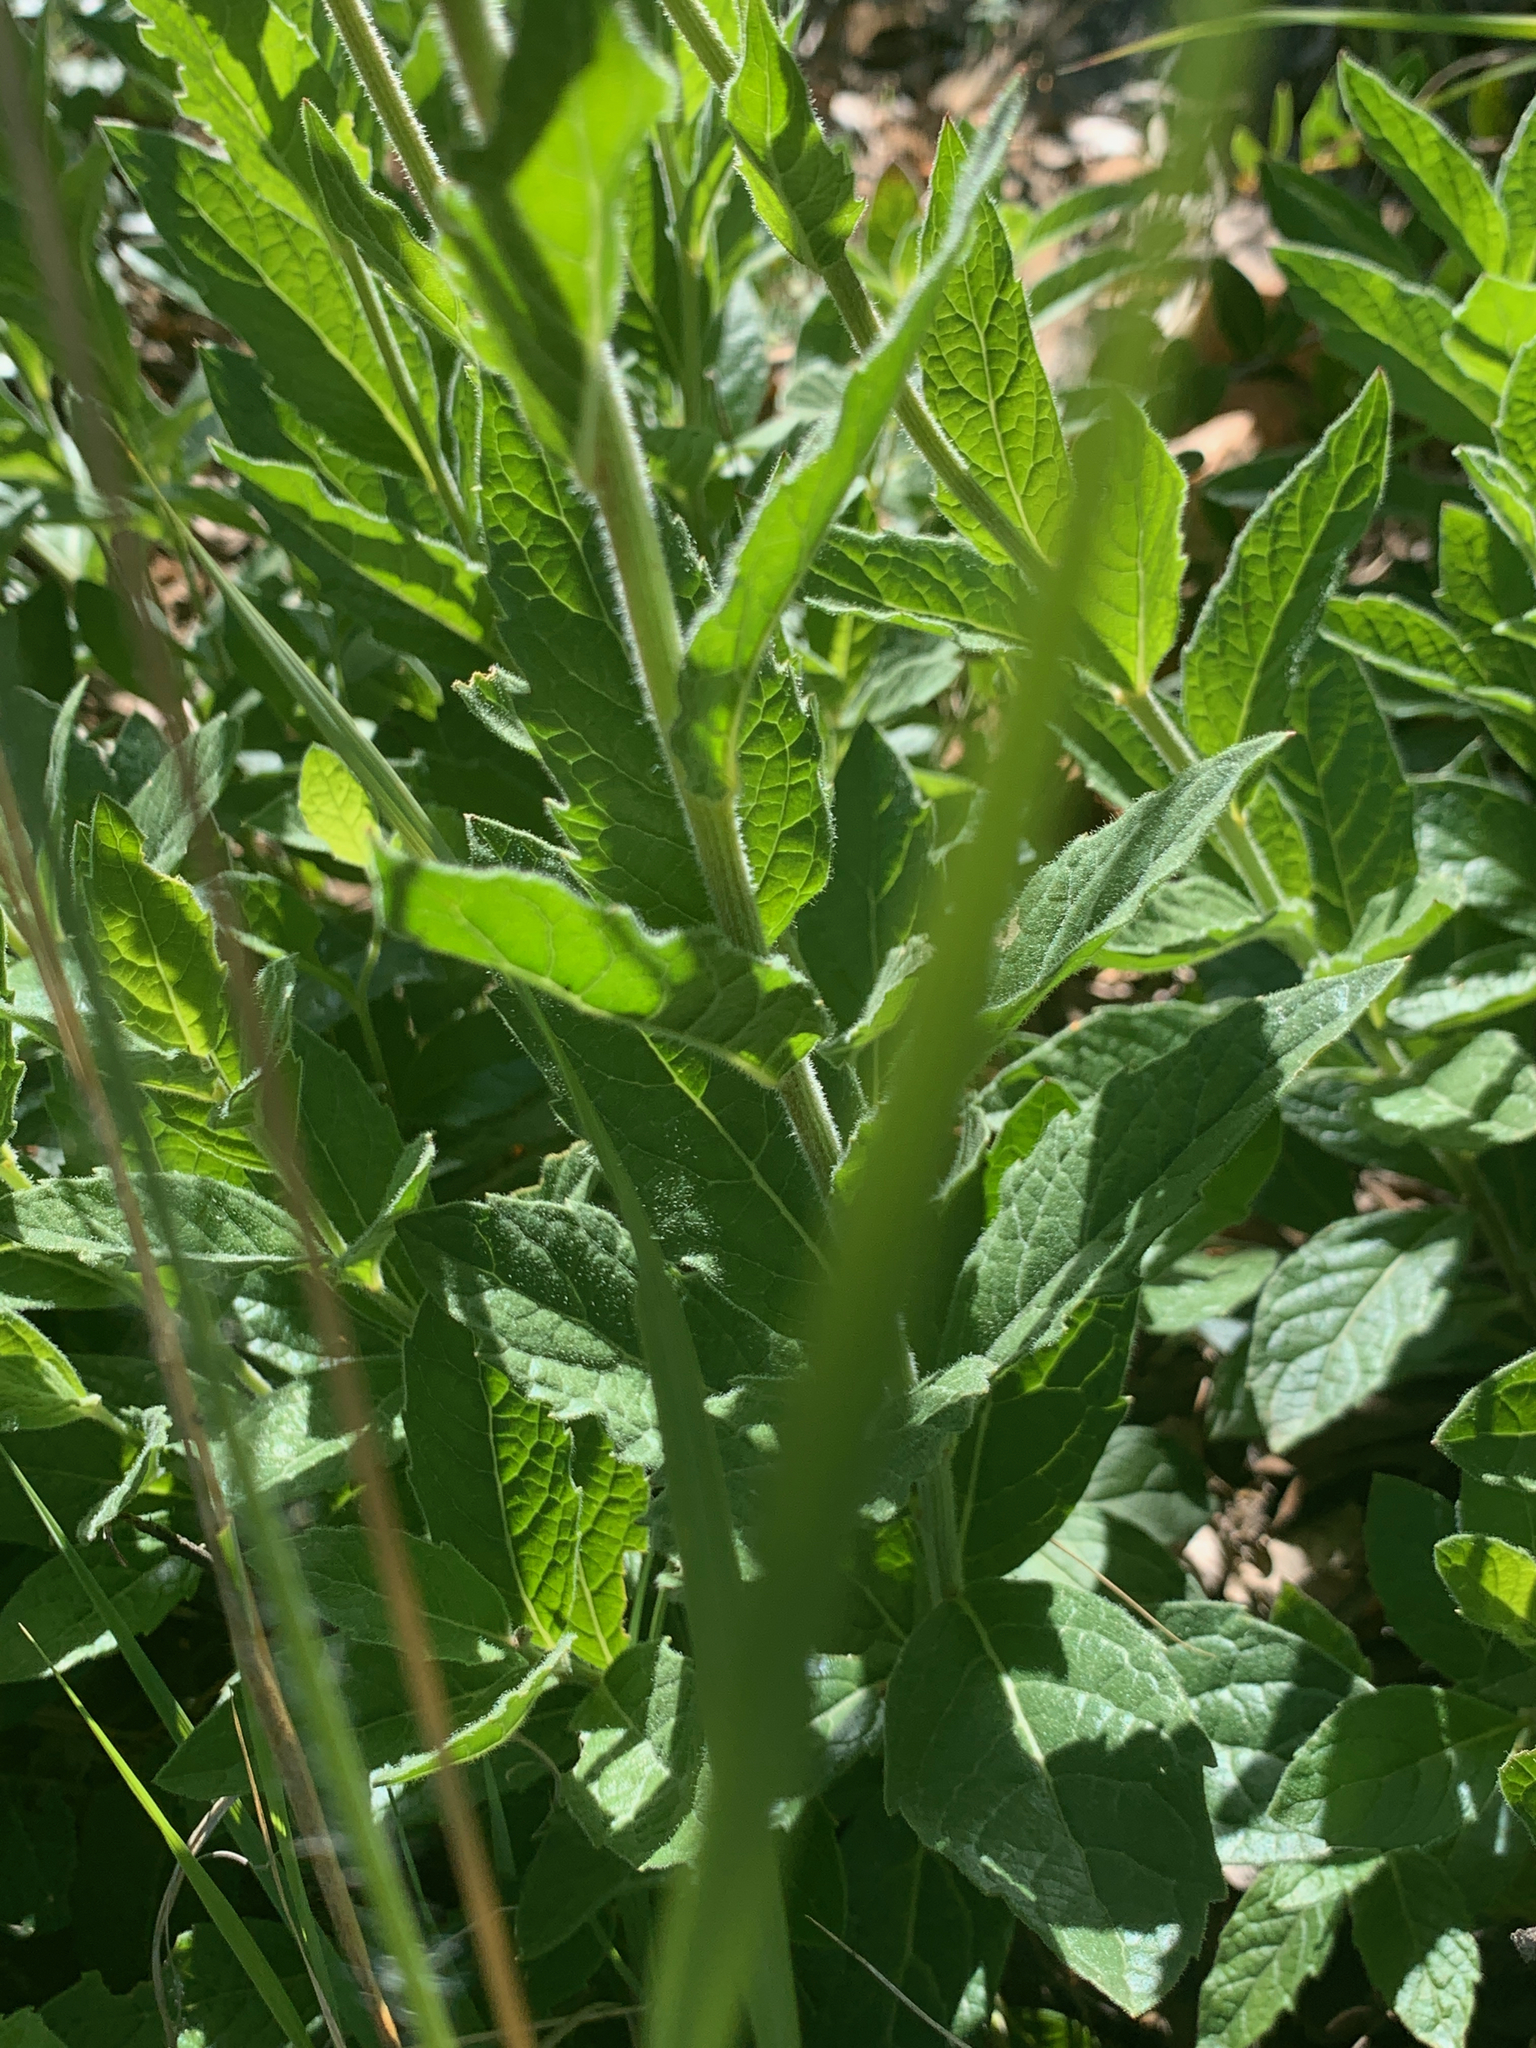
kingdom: Plantae
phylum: Tracheophyta
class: Magnoliopsida
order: Asterales
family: Asteraceae
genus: Pseudopegolettia
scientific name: Pseudopegolettia tenella
